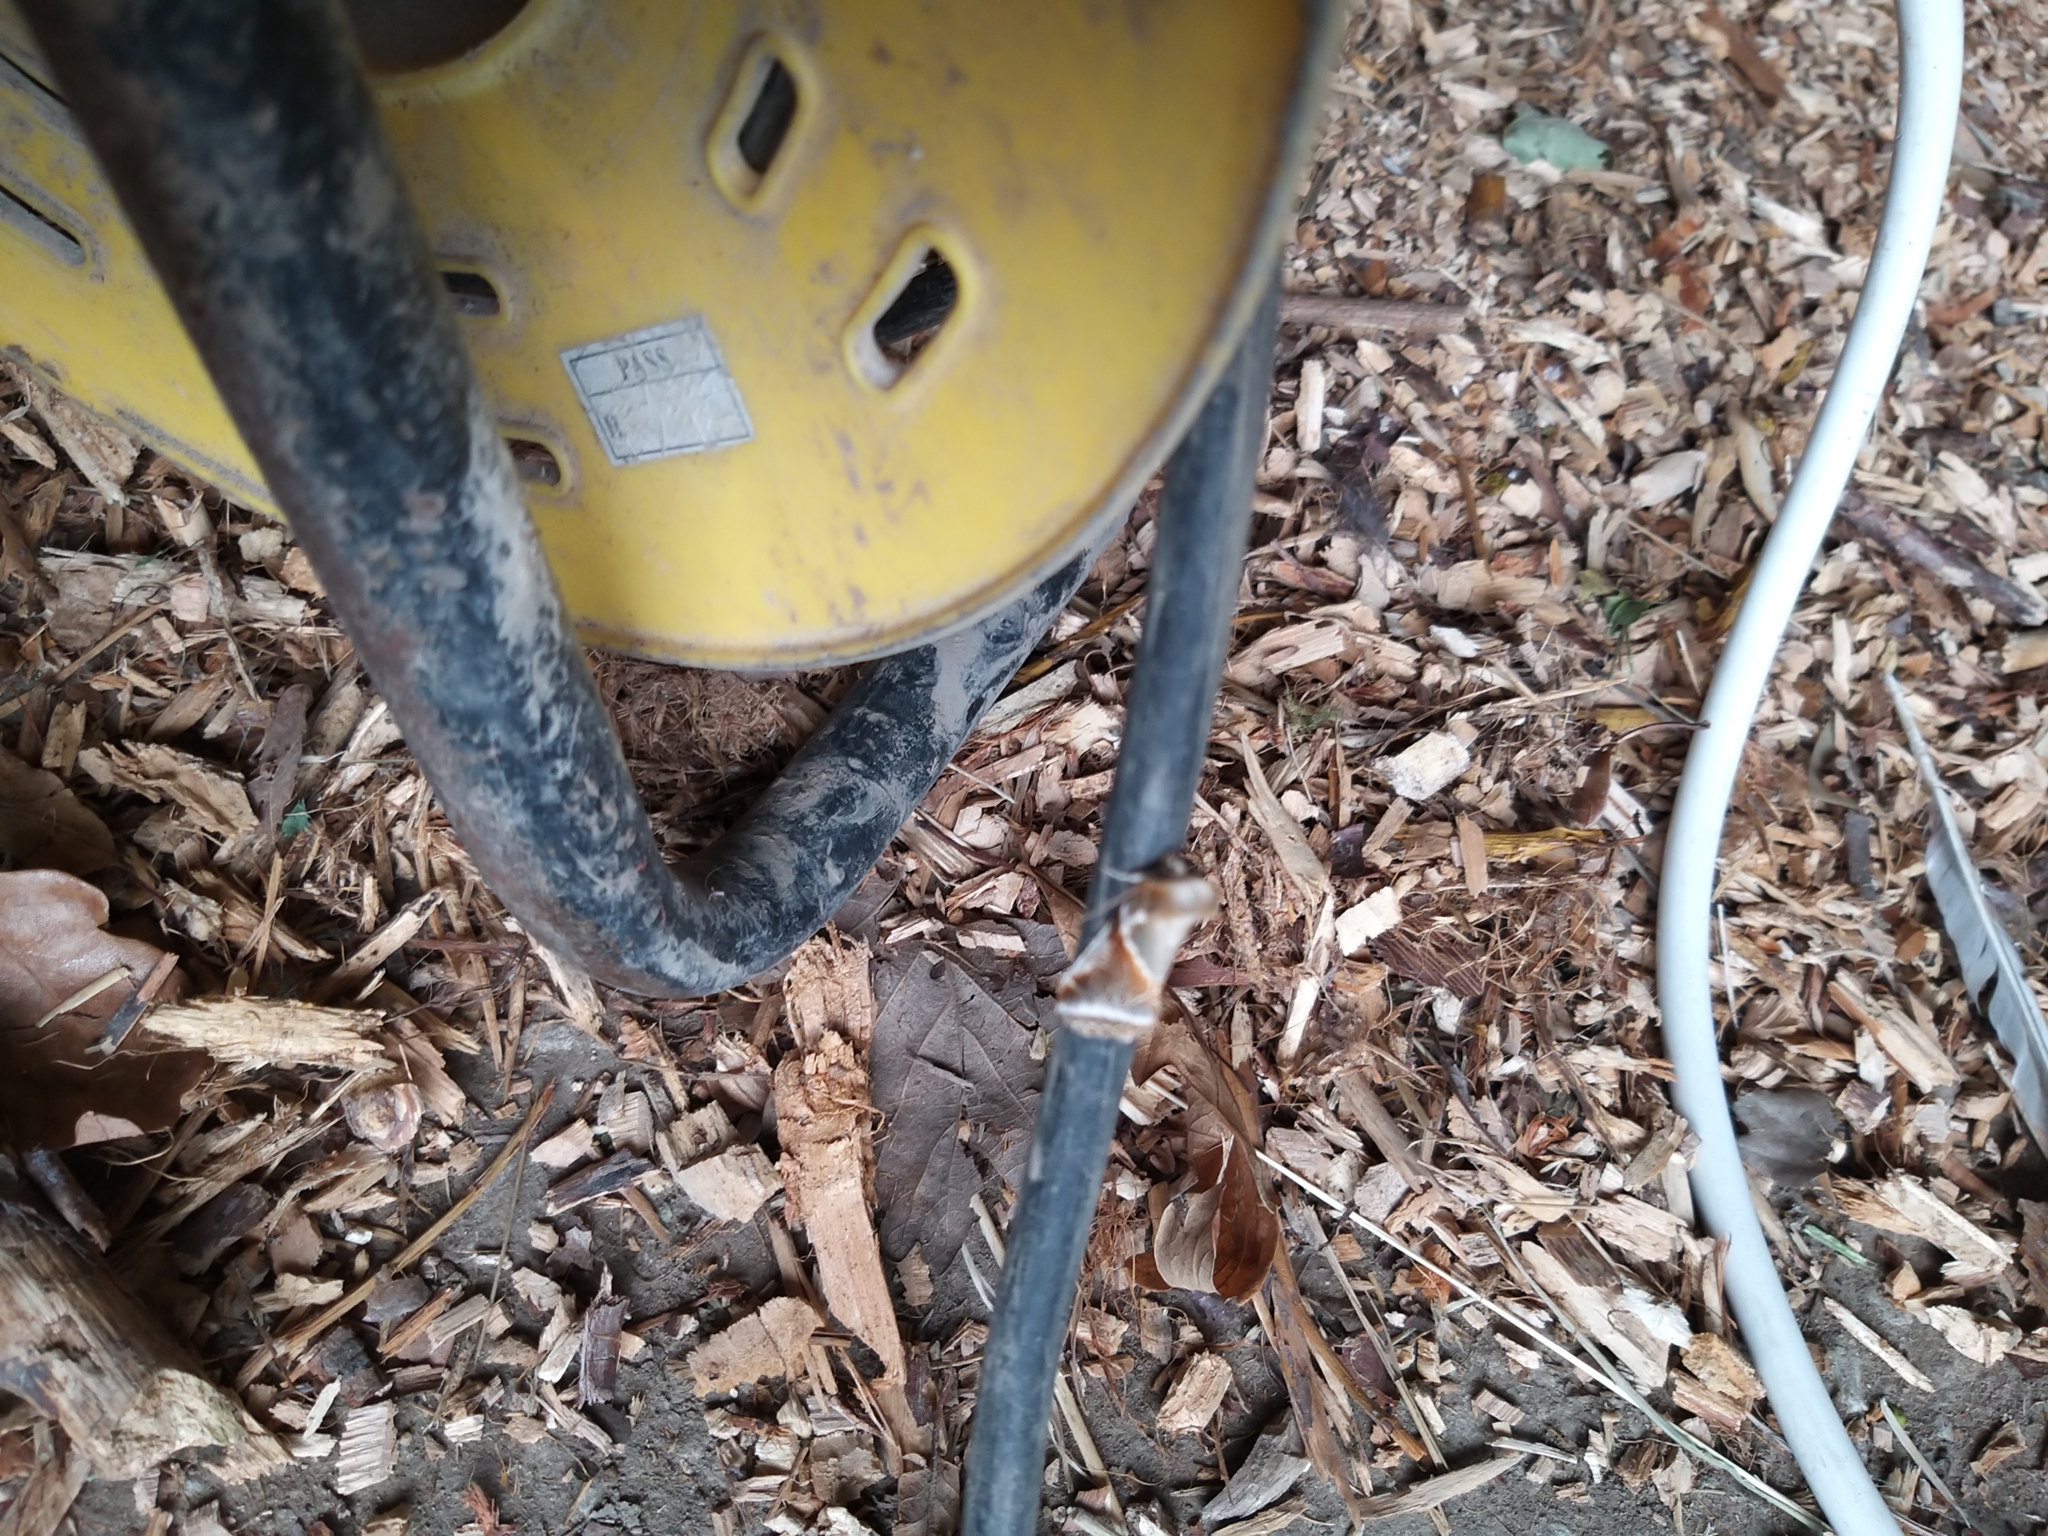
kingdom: Animalia
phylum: Arthropoda
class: Insecta
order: Lepidoptera
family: Drepanidae
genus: Habrosyne
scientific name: Habrosyne pyritoides
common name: Buff arches
